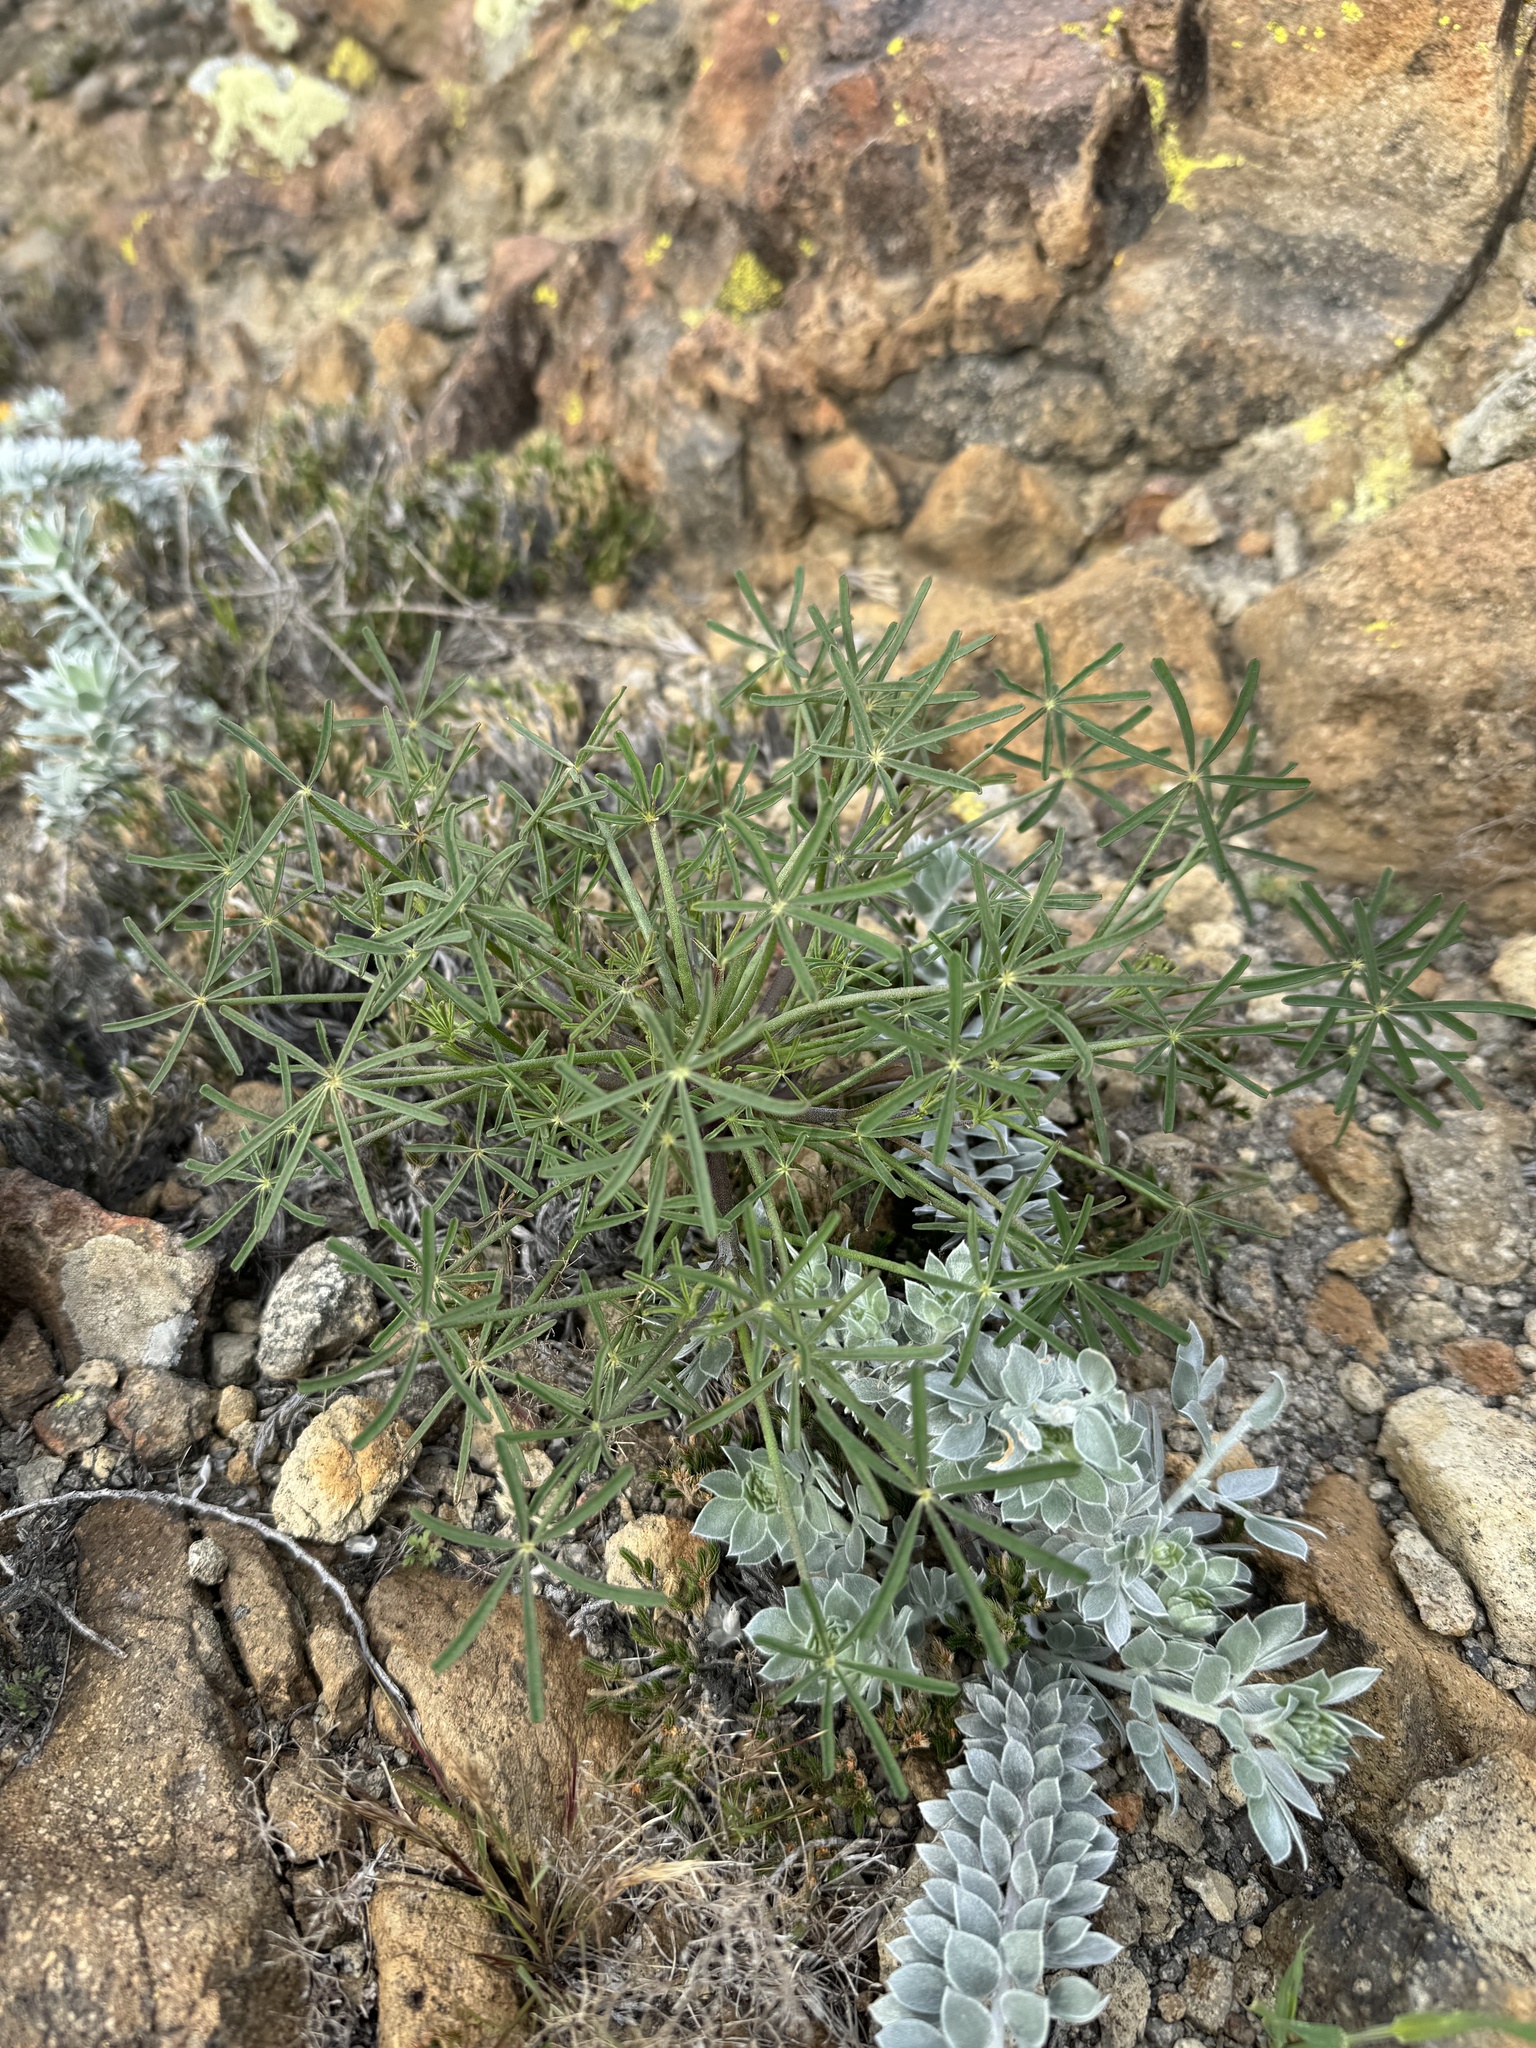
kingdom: Plantae
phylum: Tracheophyta
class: Magnoliopsida
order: Fabales
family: Fabaceae
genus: Lupinus
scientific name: Lupinus truncatus
